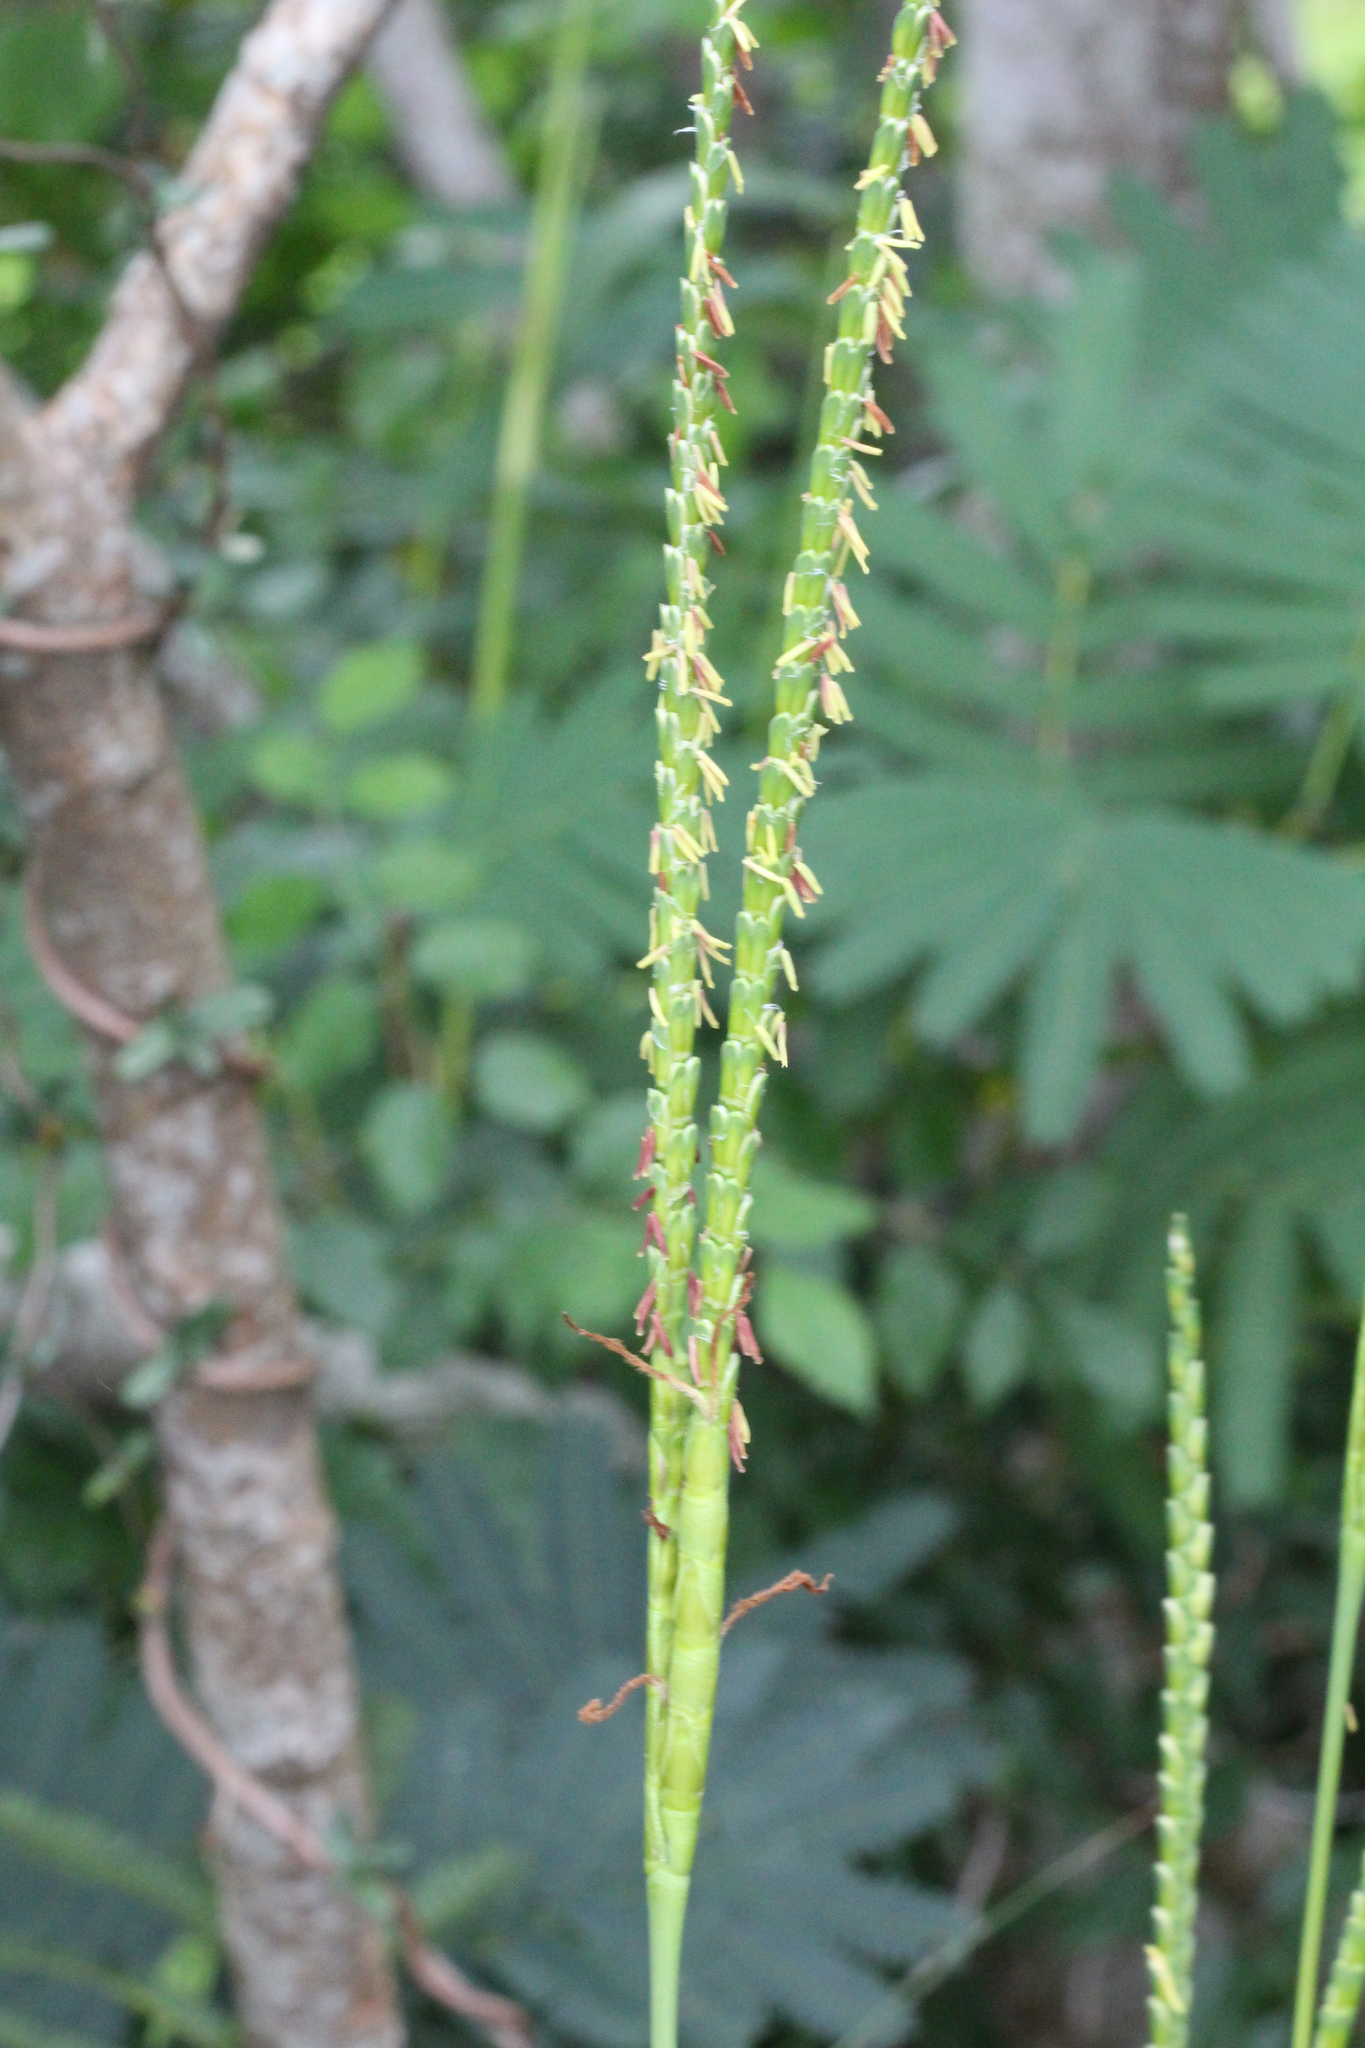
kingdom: Plantae
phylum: Tracheophyta
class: Liliopsida
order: Poales
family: Poaceae
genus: Tripsacum
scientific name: Tripsacum dactyloides
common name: Buffalo-grass
